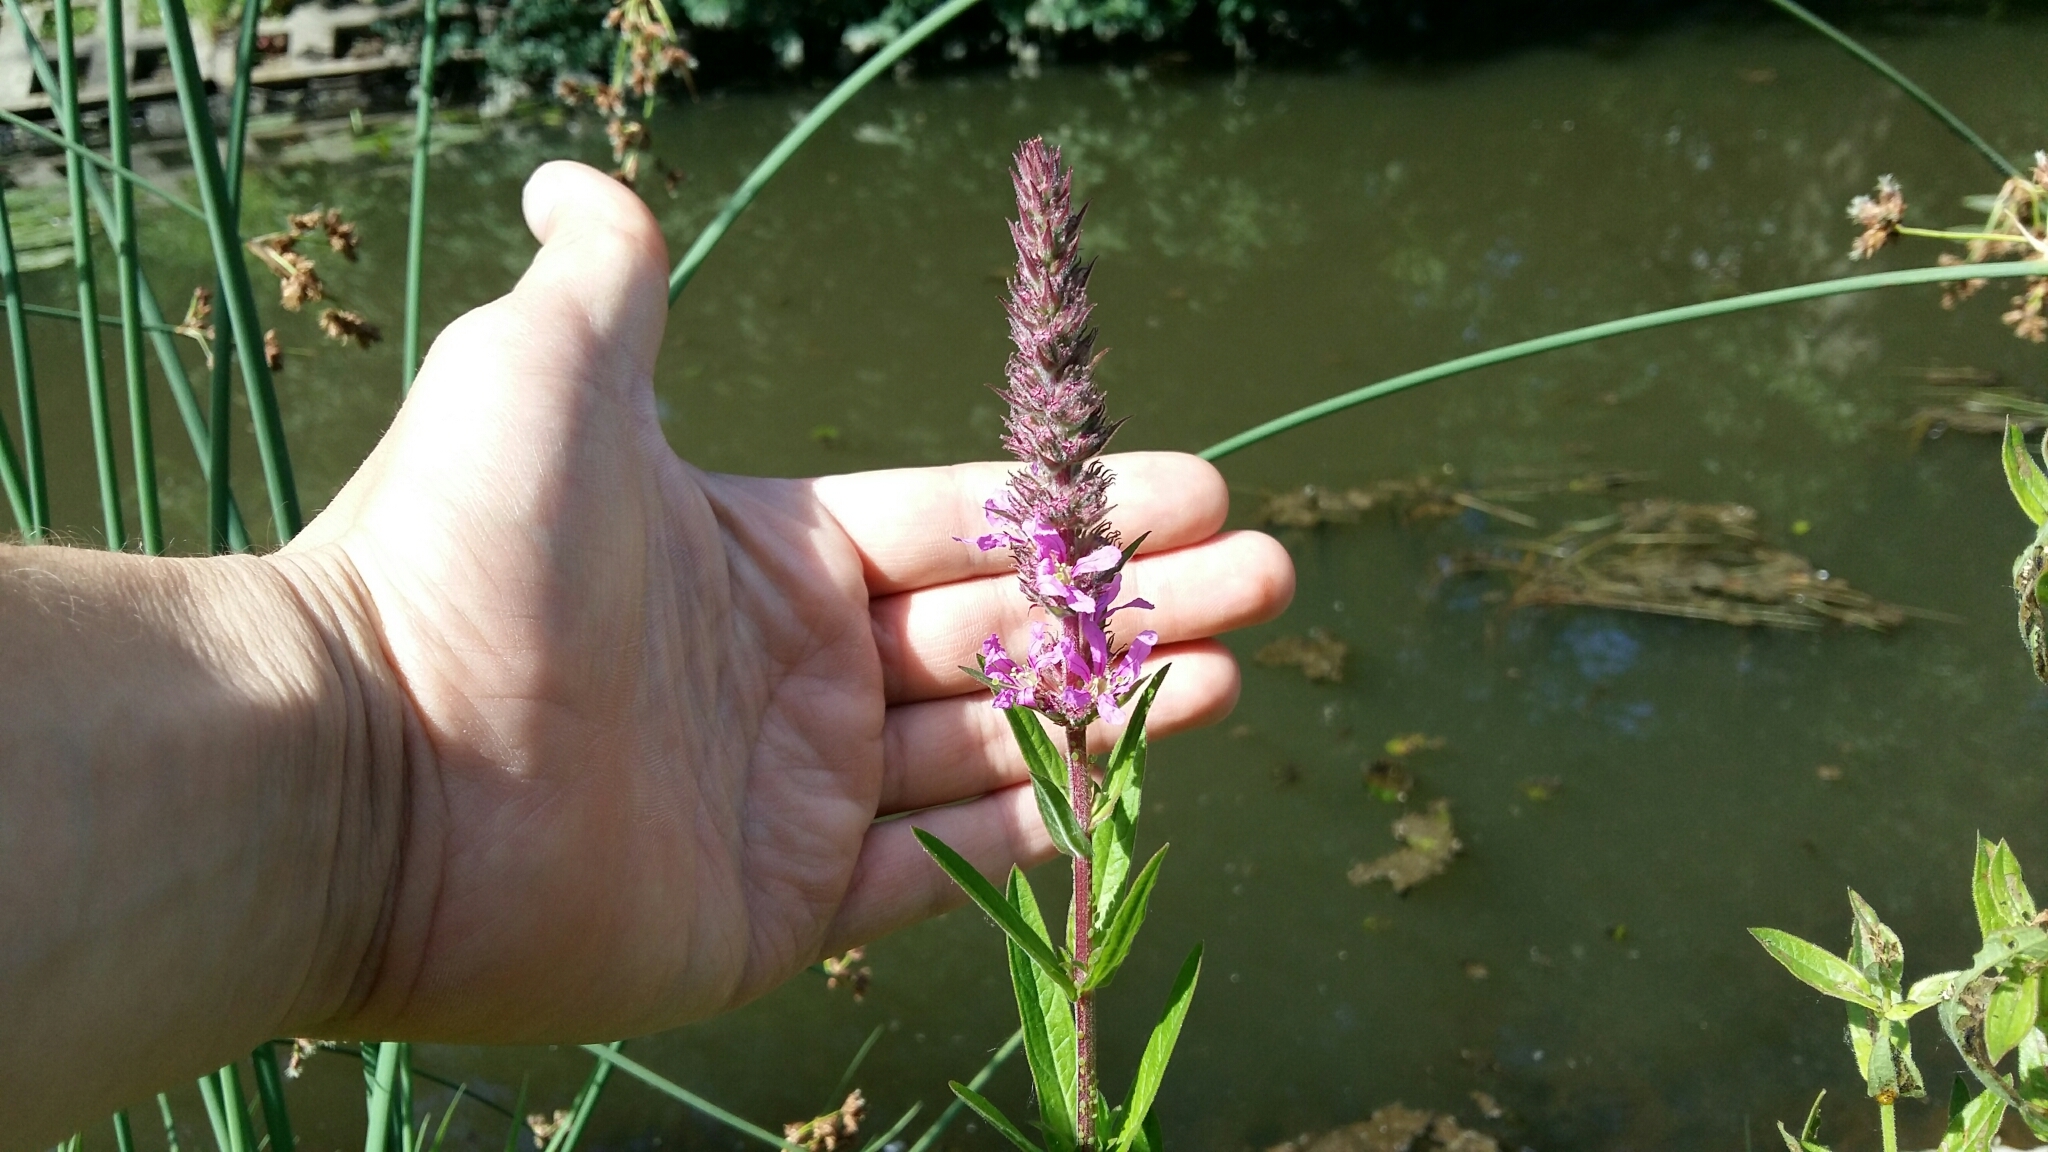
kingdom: Plantae
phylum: Tracheophyta
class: Magnoliopsida
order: Myrtales
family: Lythraceae
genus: Lythrum
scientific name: Lythrum salicaria
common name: Purple loosestrife
